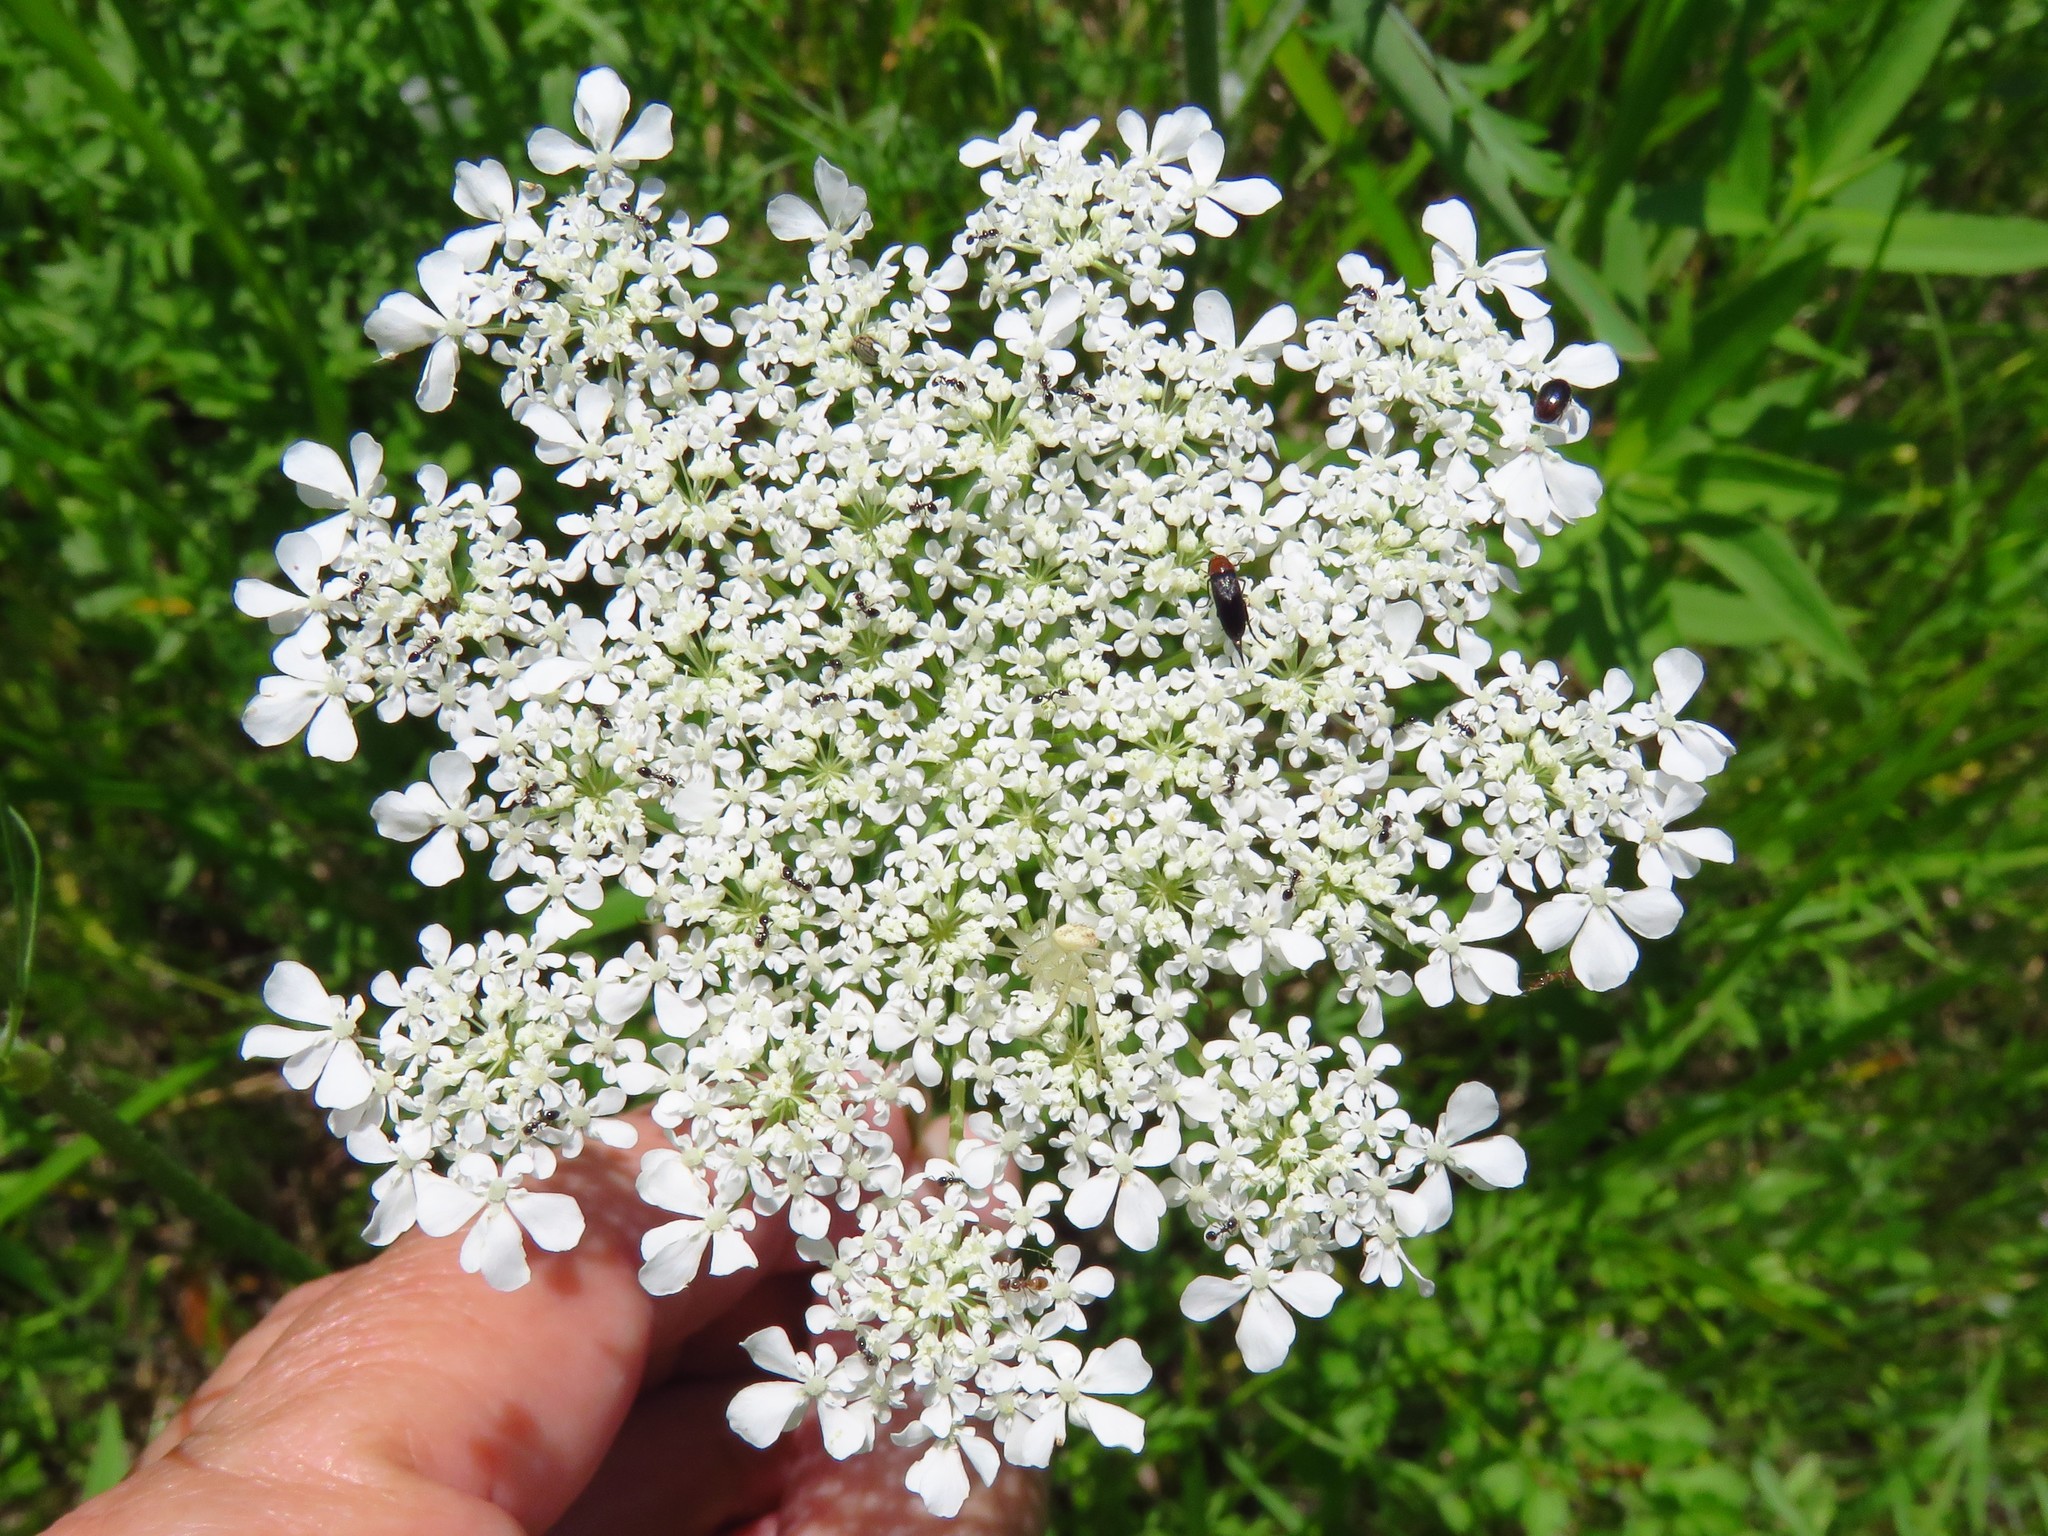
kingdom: Plantae
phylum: Tracheophyta
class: Magnoliopsida
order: Apiales
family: Apiaceae
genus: Daucus
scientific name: Daucus carota
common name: Wild carrot
